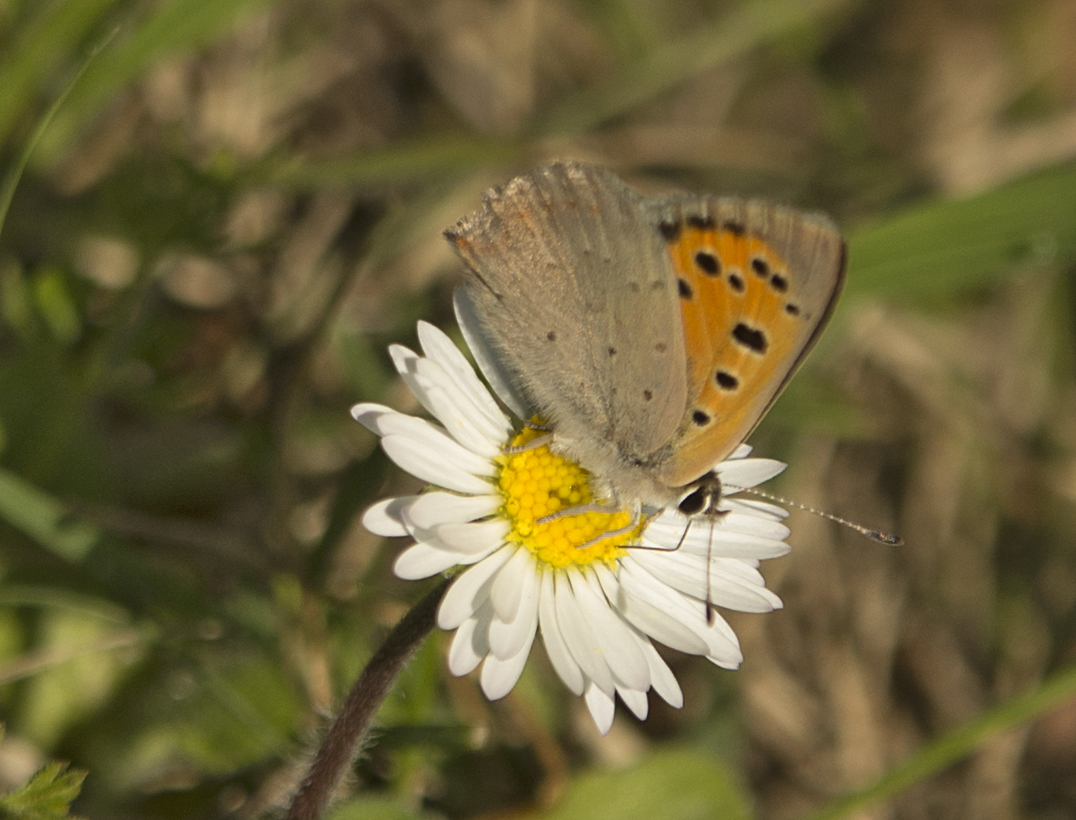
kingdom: Animalia
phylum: Arthropoda
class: Insecta
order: Lepidoptera
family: Lycaenidae
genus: Lycaena
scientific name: Lycaena phlaeas
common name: Small copper
